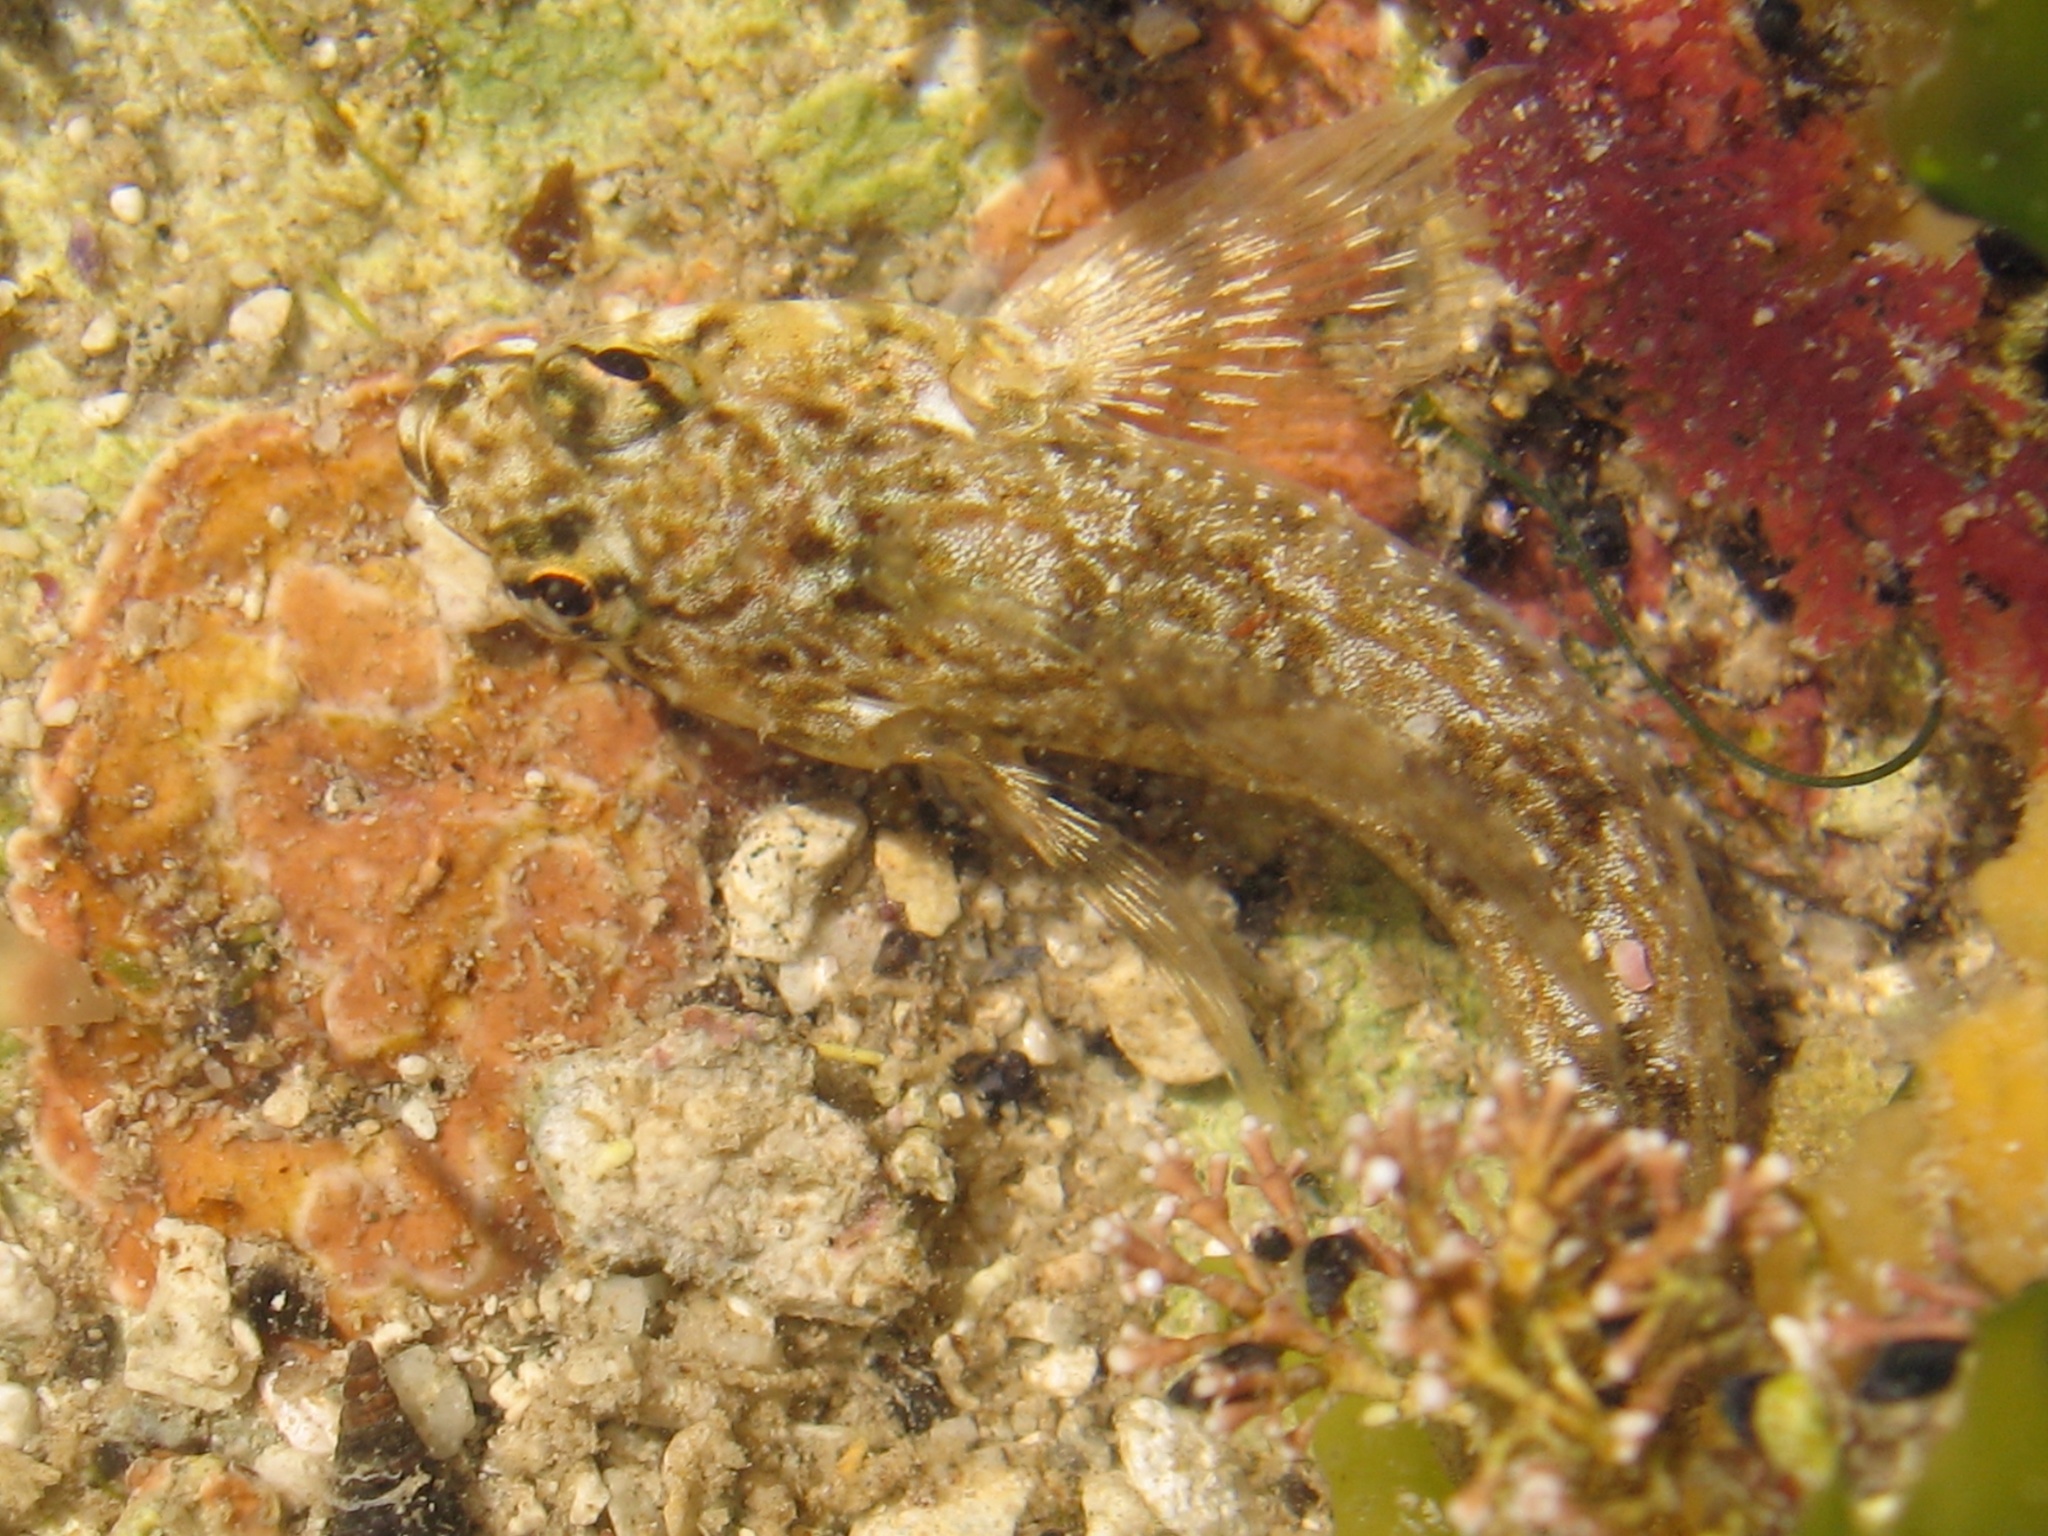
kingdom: Animalia
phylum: Chordata
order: Perciformes
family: Tripterygiidae
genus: Bellapiscis
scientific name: Bellapiscis medius
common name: Twister
